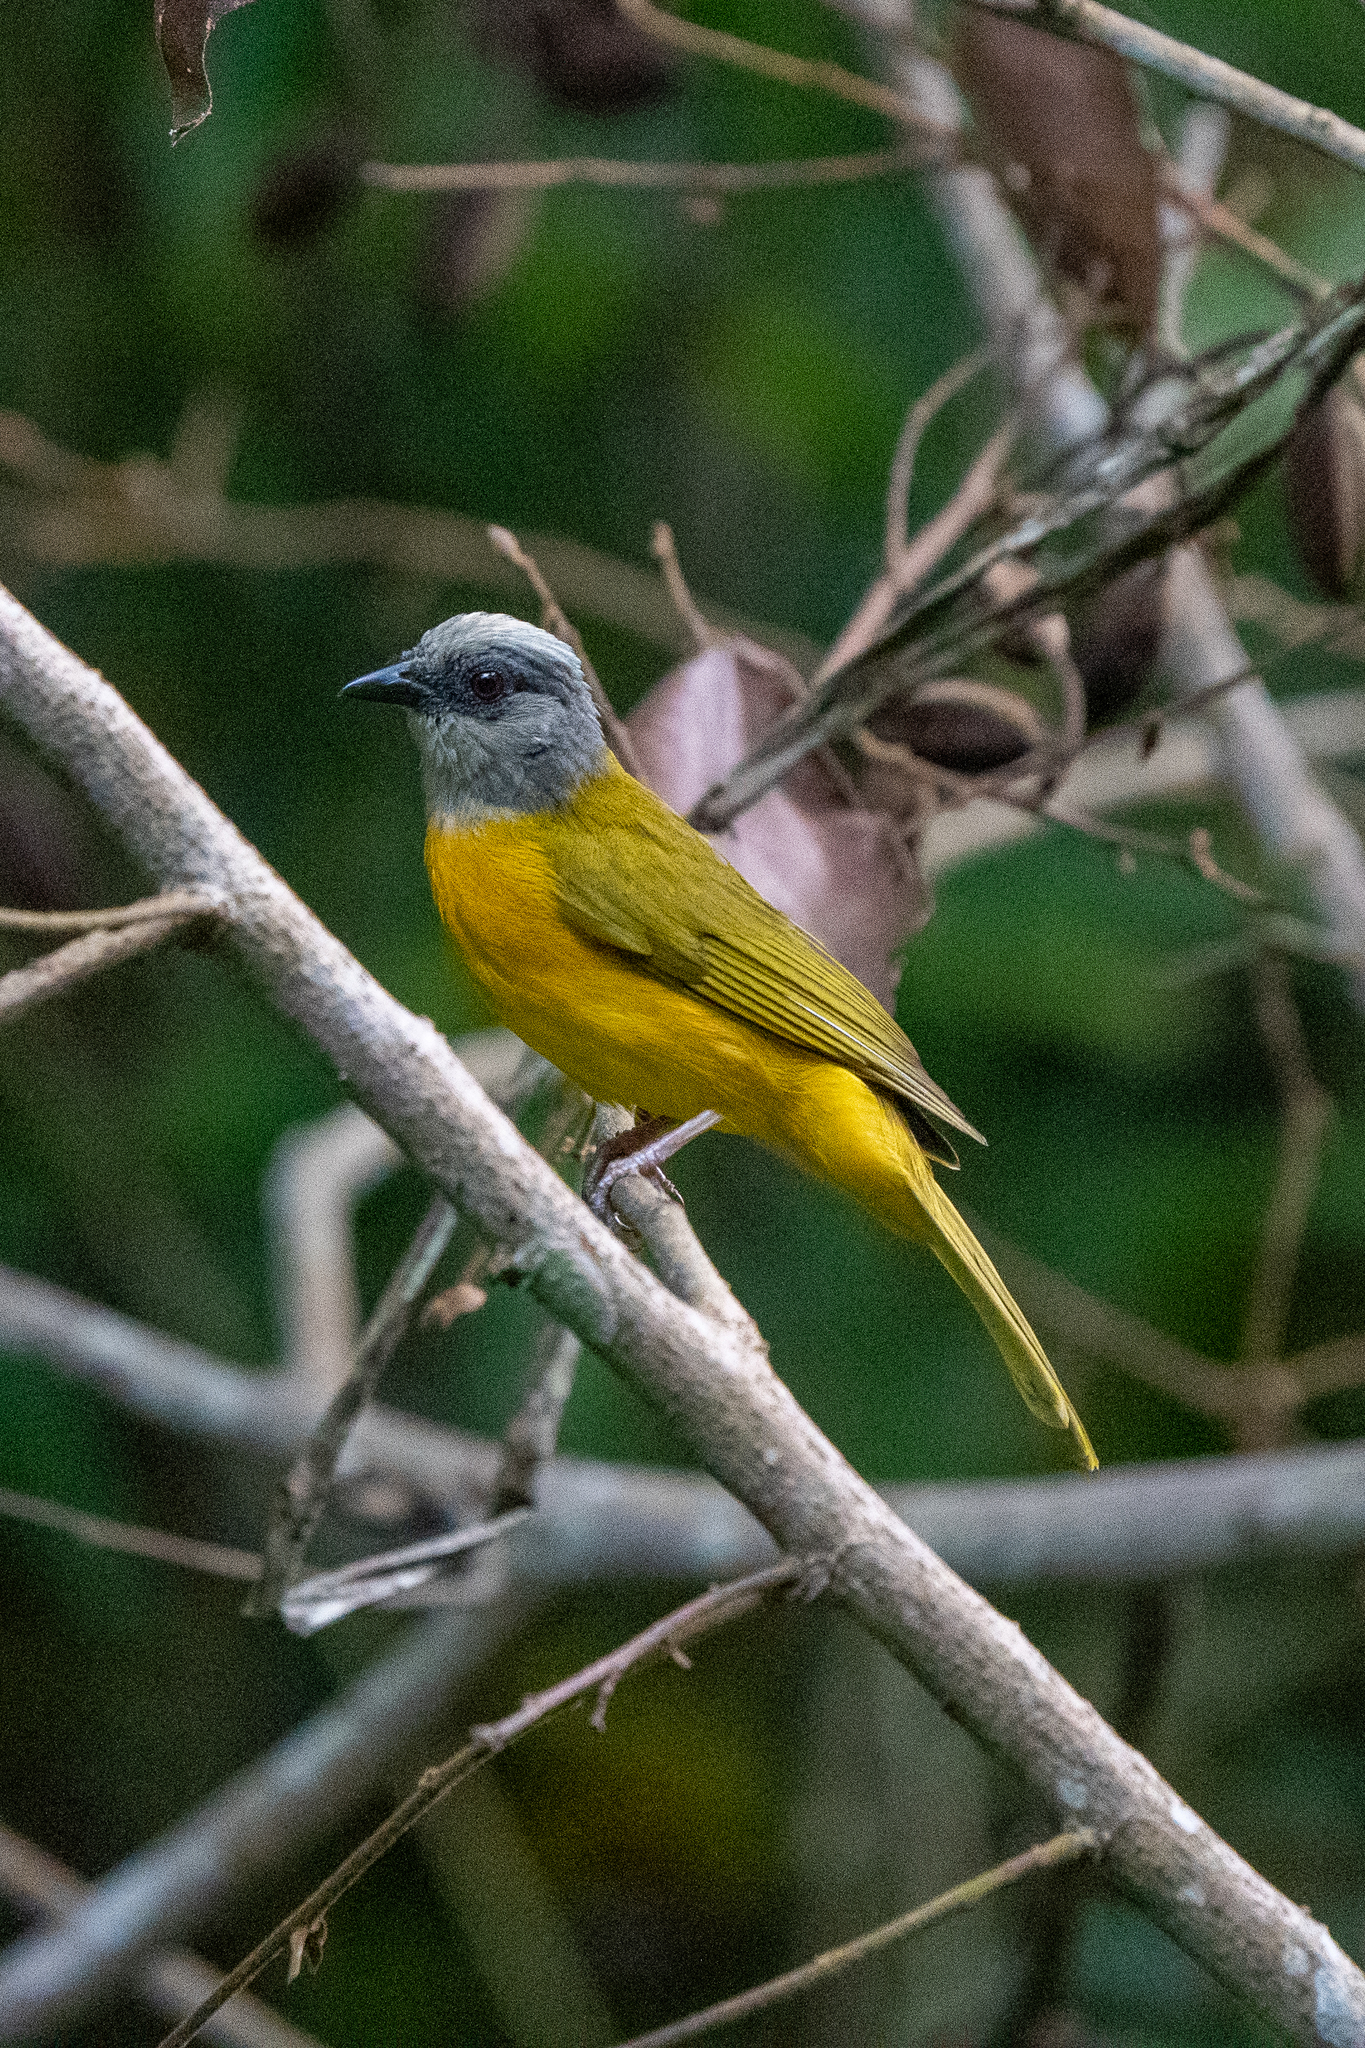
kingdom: Animalia
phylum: Chordata
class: Aves
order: Passeriformes
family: Thraupidae
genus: Eucometis
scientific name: Eucometis penicillata
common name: Grey-headed tanager
